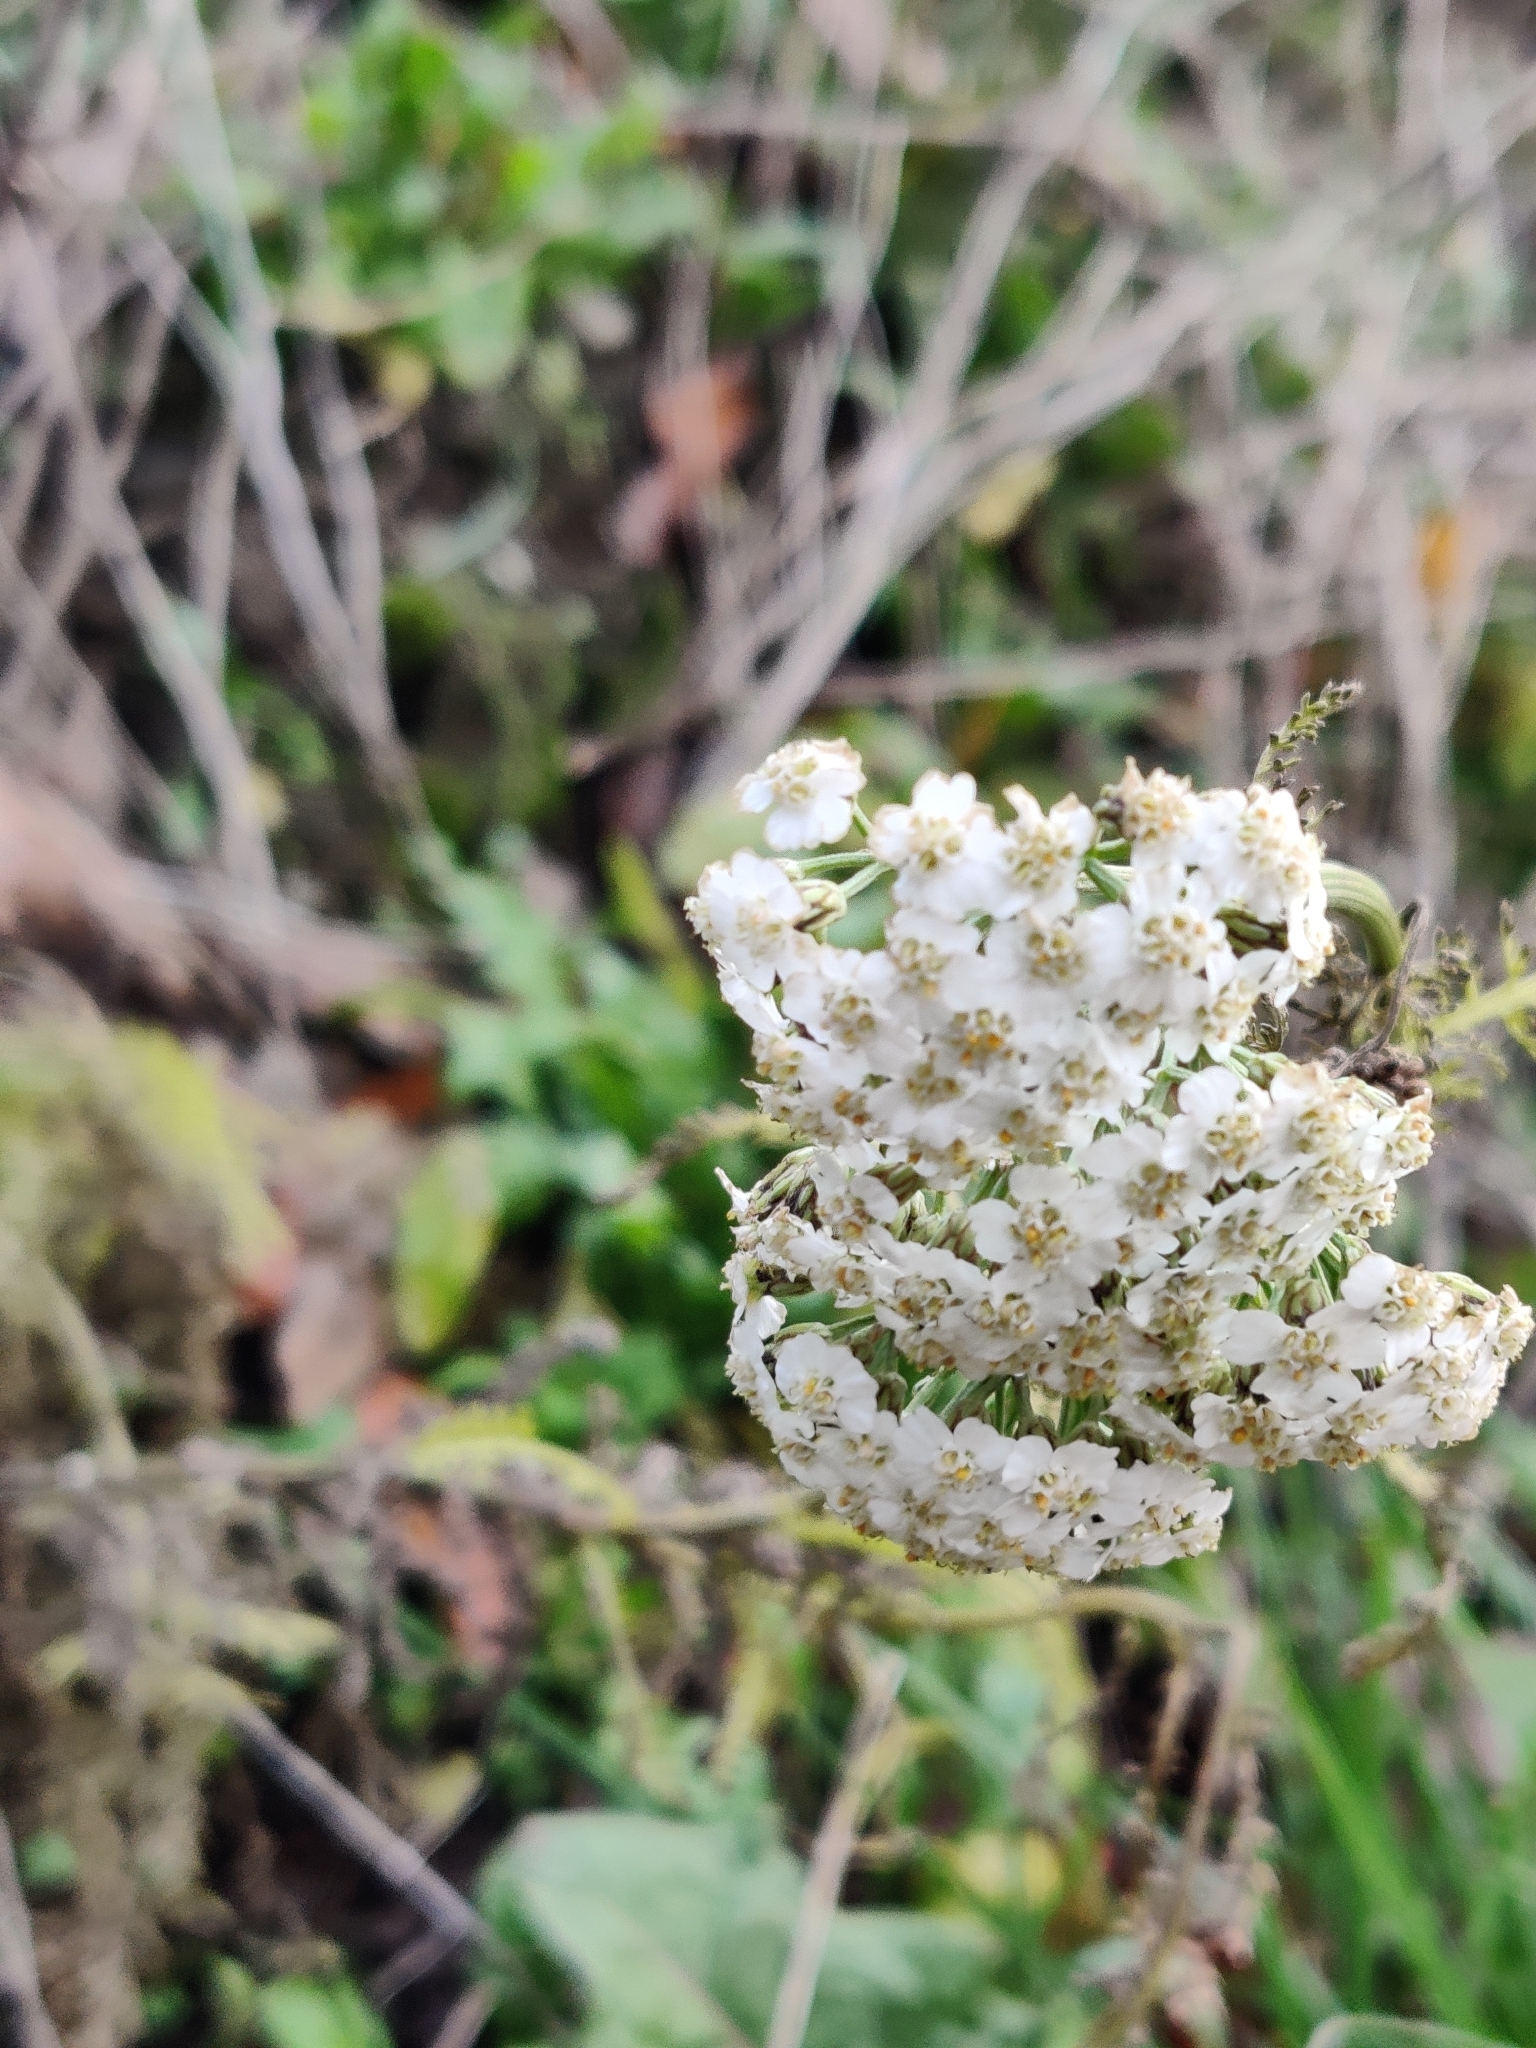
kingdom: Plantae
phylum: Tracheophyta
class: Magnoliopsida
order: Asterales
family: Asteraceae
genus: Achillea
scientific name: Achillea millefolium
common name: Yarrow
